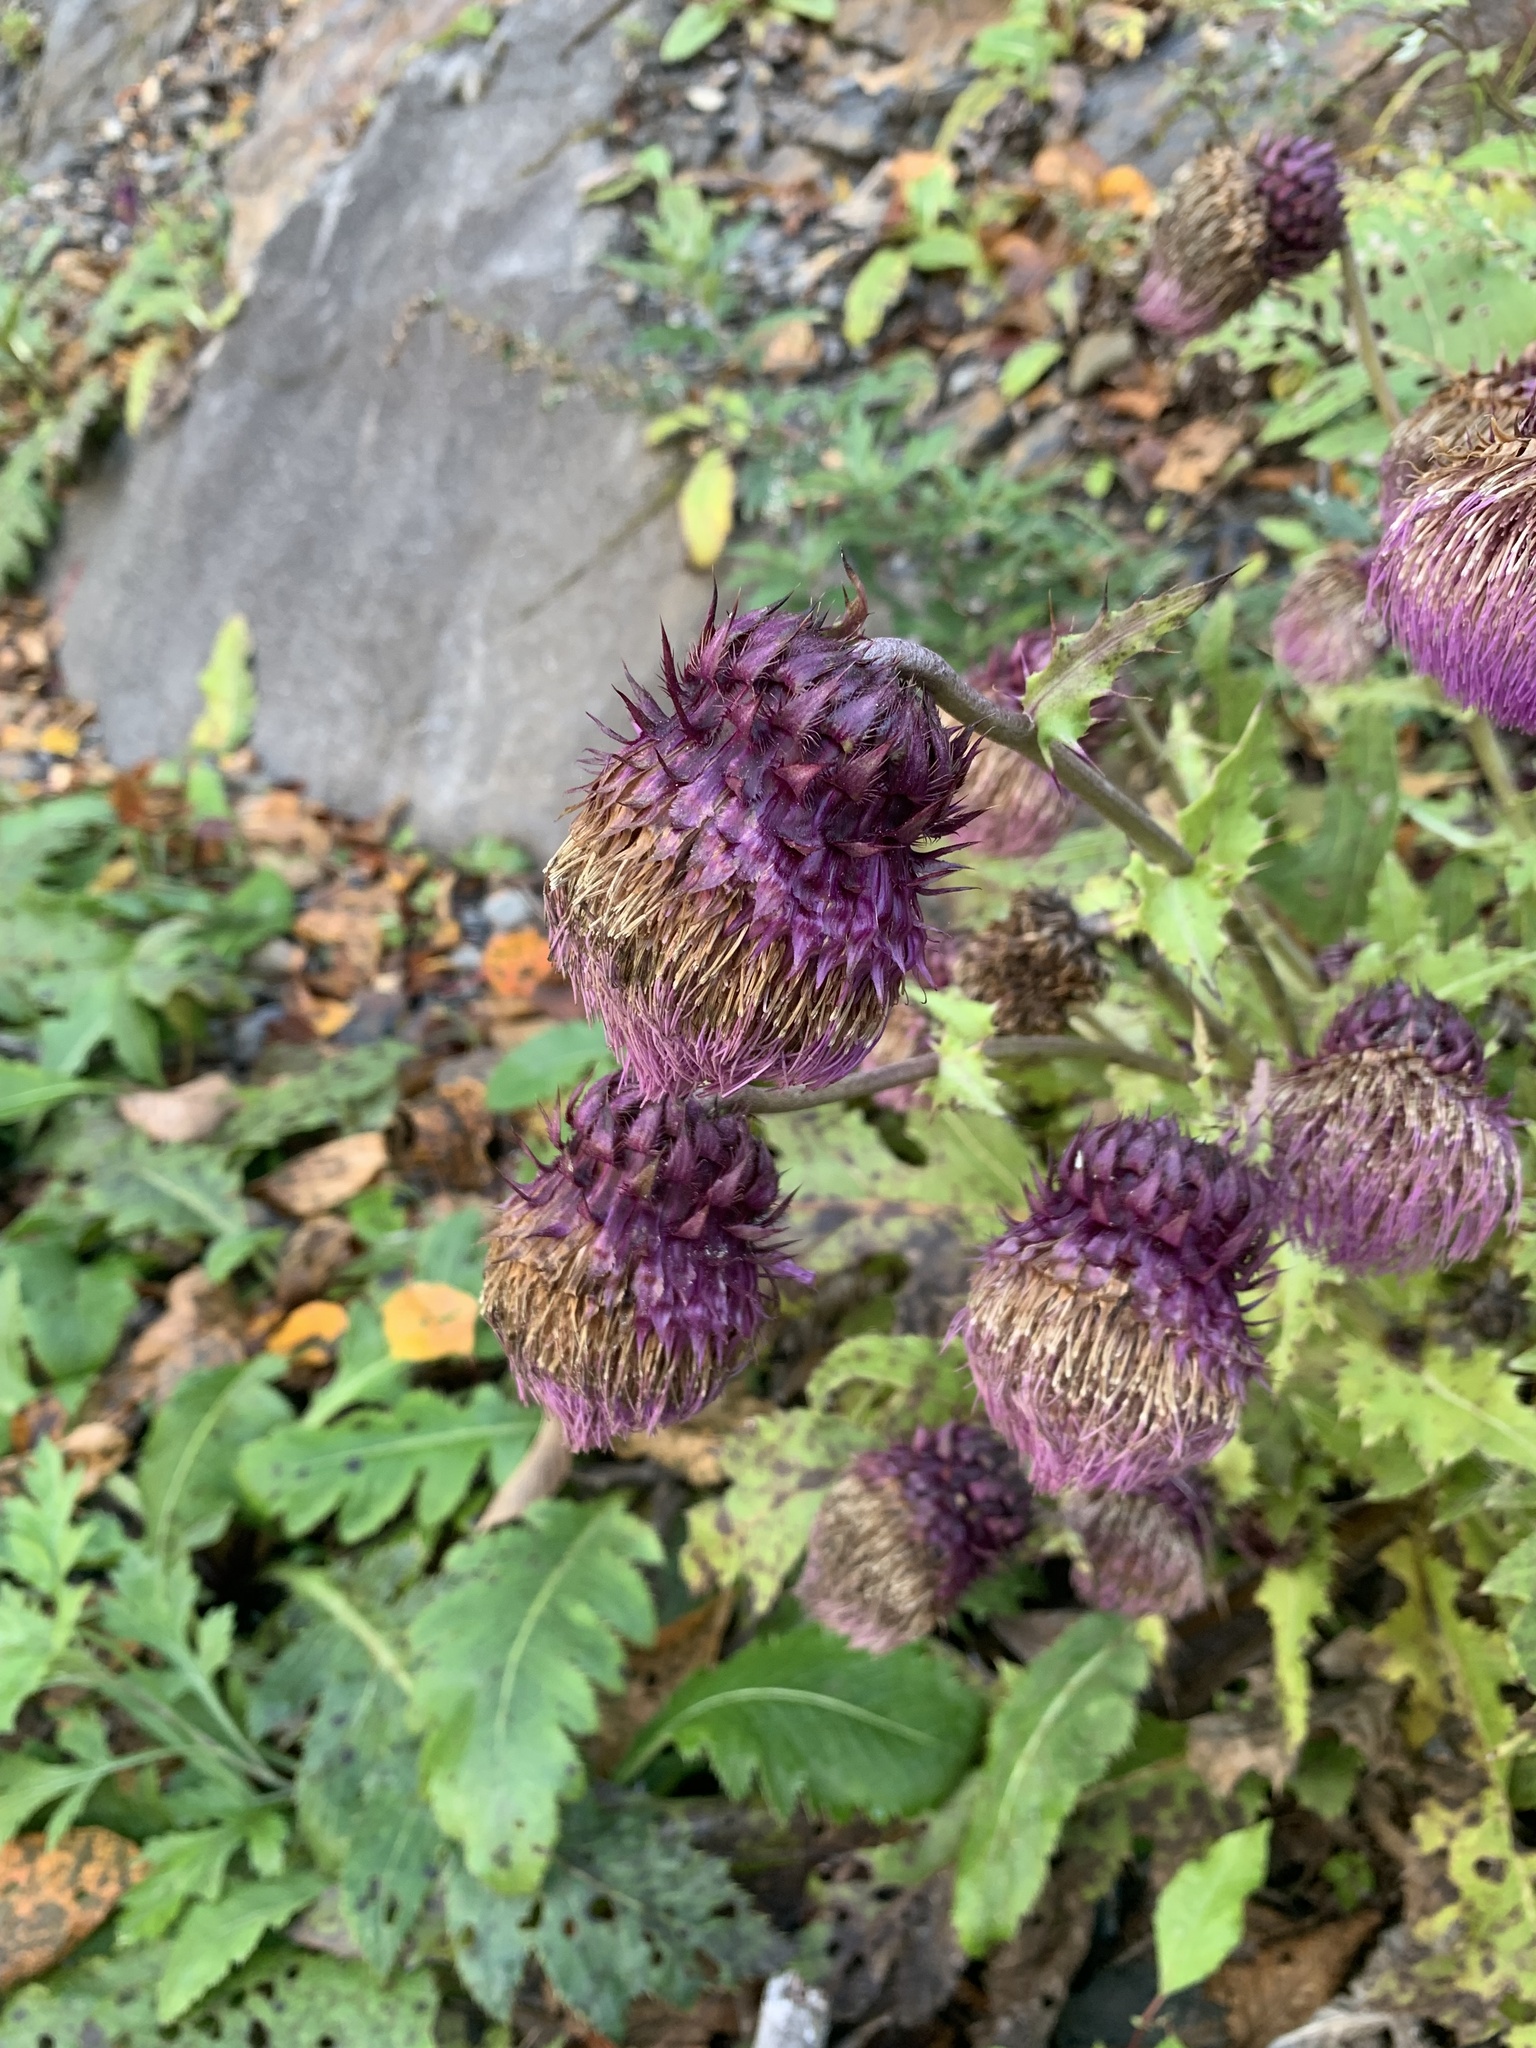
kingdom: Plantae
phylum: Tracheophyta
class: Magnoliopsida
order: Asterales
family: Asteraceae
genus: Cirsium
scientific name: Cirsium purpuratum
